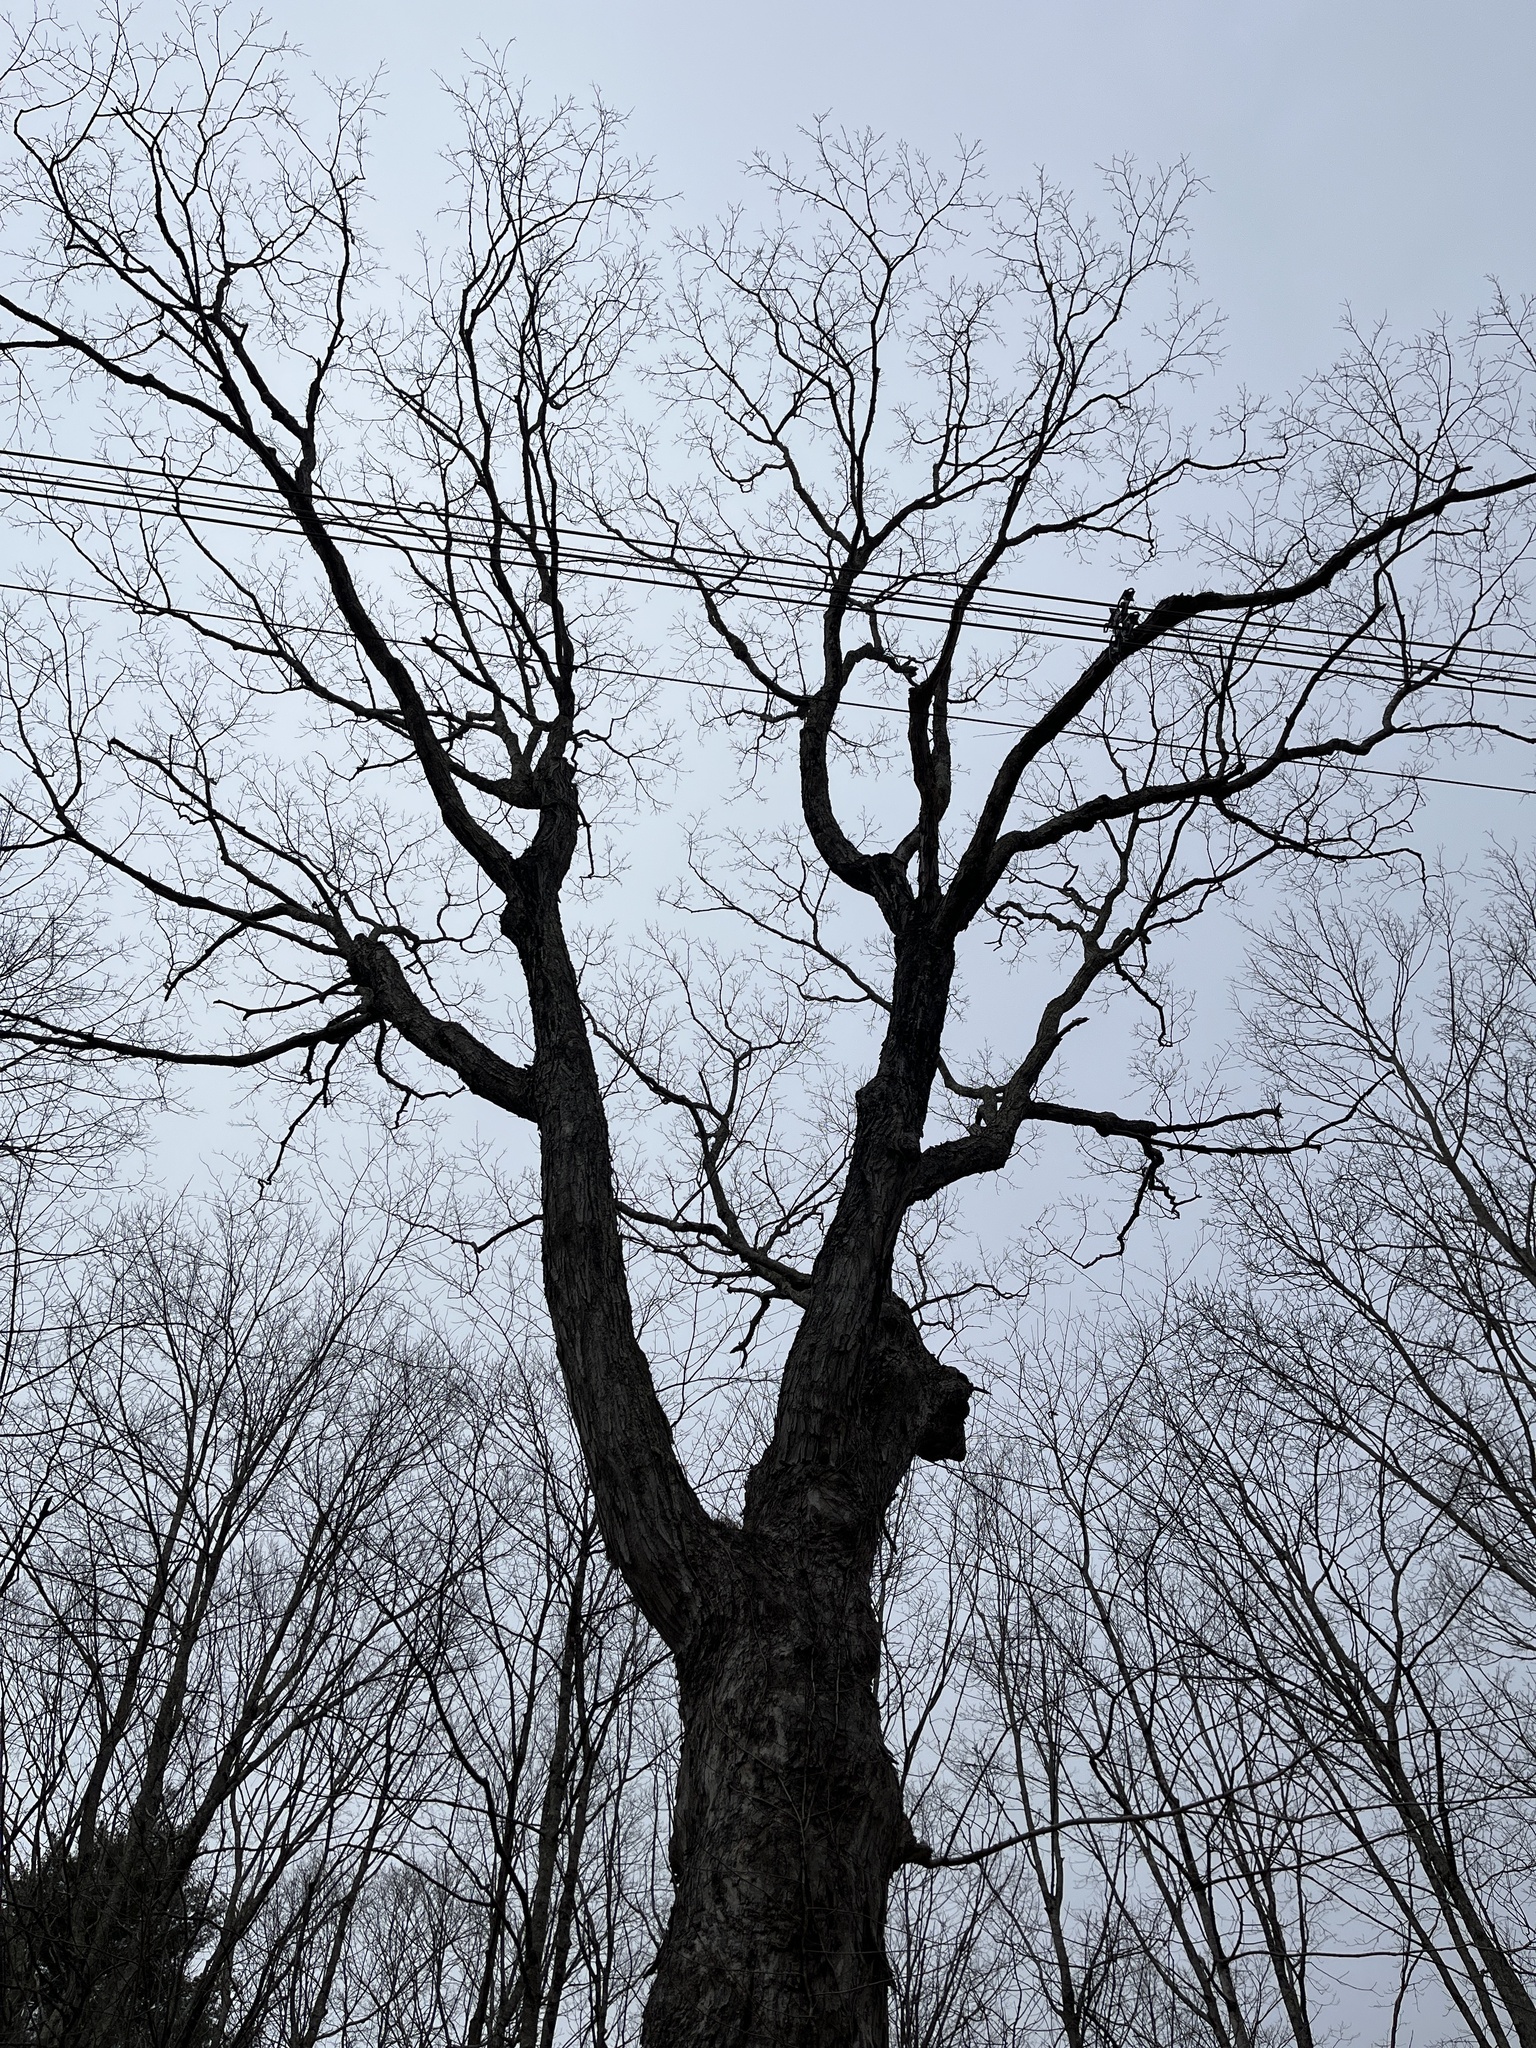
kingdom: Plantae
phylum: Tracheophyta
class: Magnoliopsida
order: Sapindales
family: Sapindaceae
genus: Acer
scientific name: Acer saccharum
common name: Sugar maple
